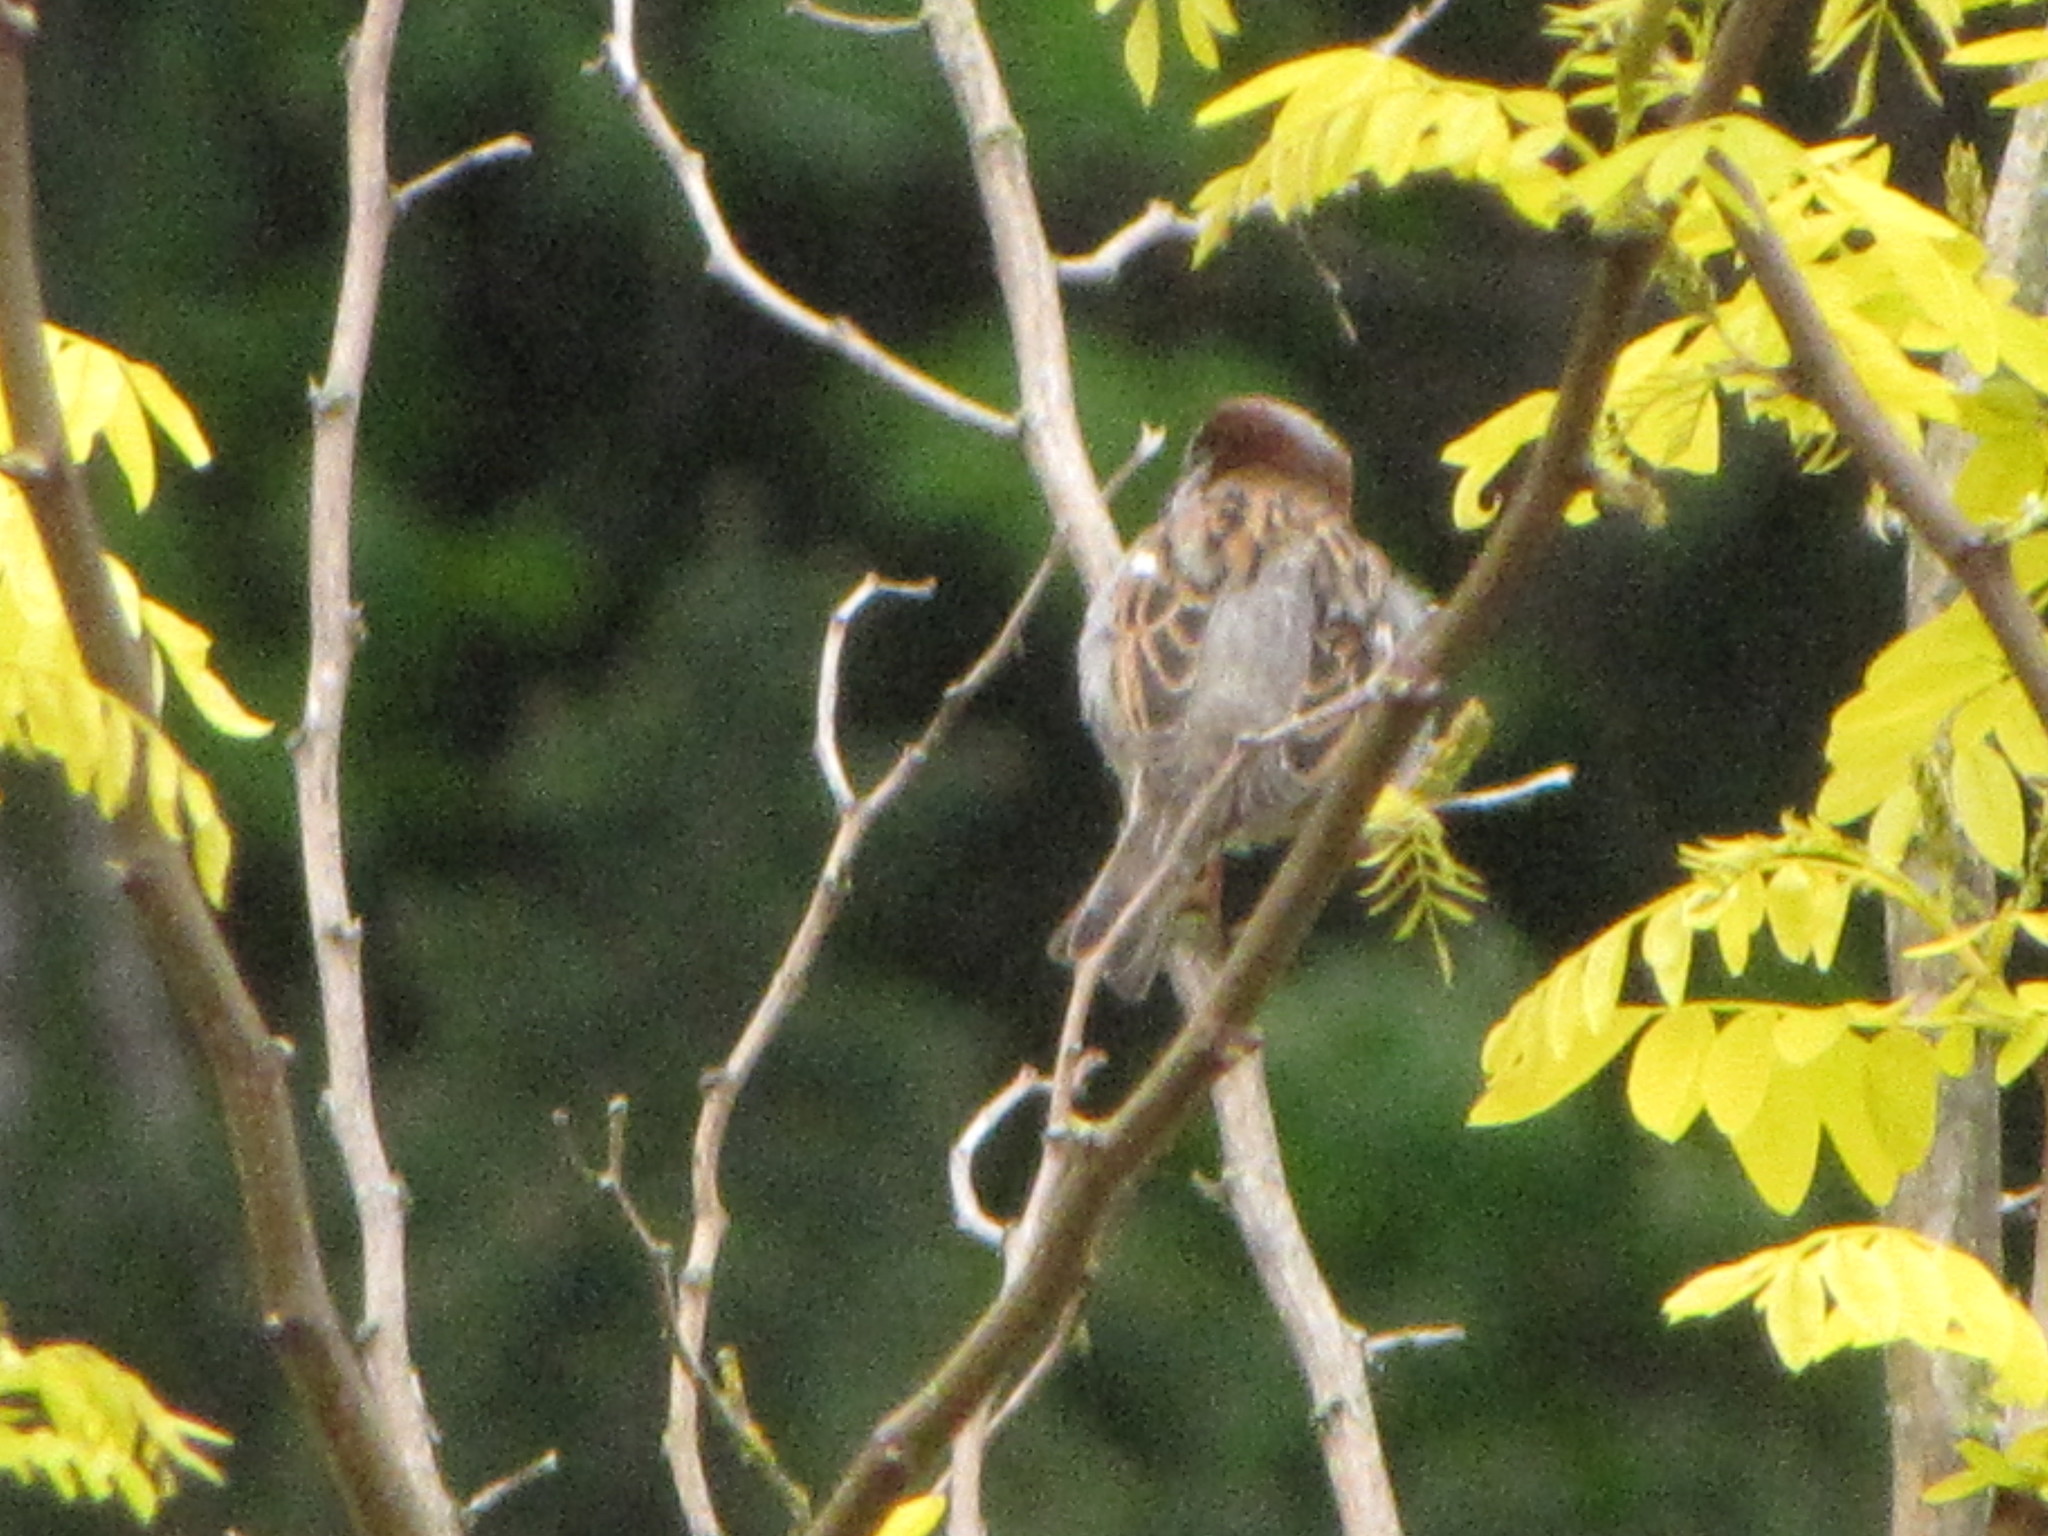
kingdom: Animalia
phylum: Chordata
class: Aves
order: Passeriformes
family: Passeridae
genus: Passer
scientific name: Passer domesticus
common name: House sparrow
